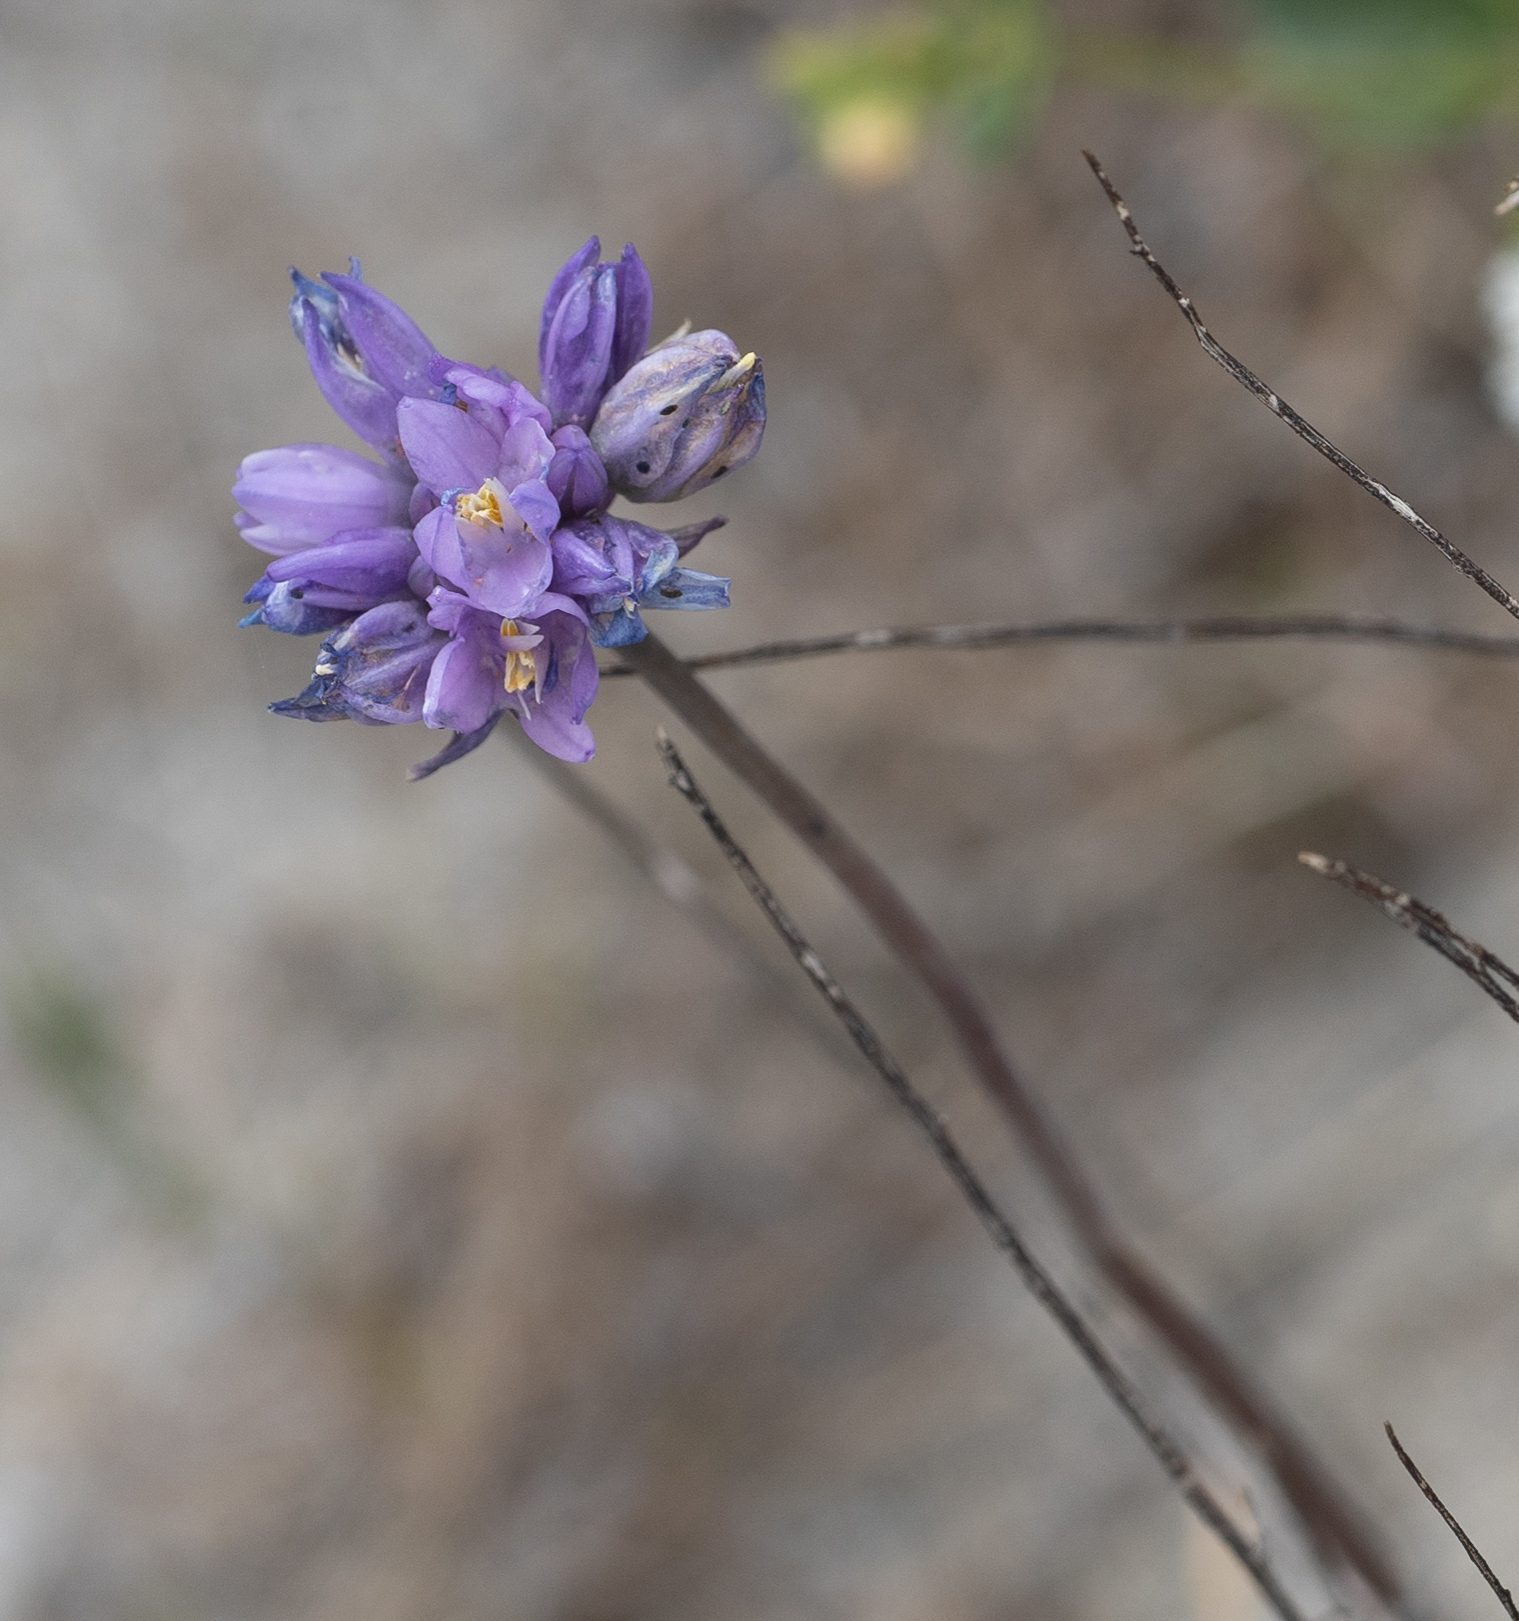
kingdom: Plantae
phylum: Tracheophyta
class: Liliopsida
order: Asparagales
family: Asparagaceae
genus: Dipterostemon
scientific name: Dipterostemon capitatus
